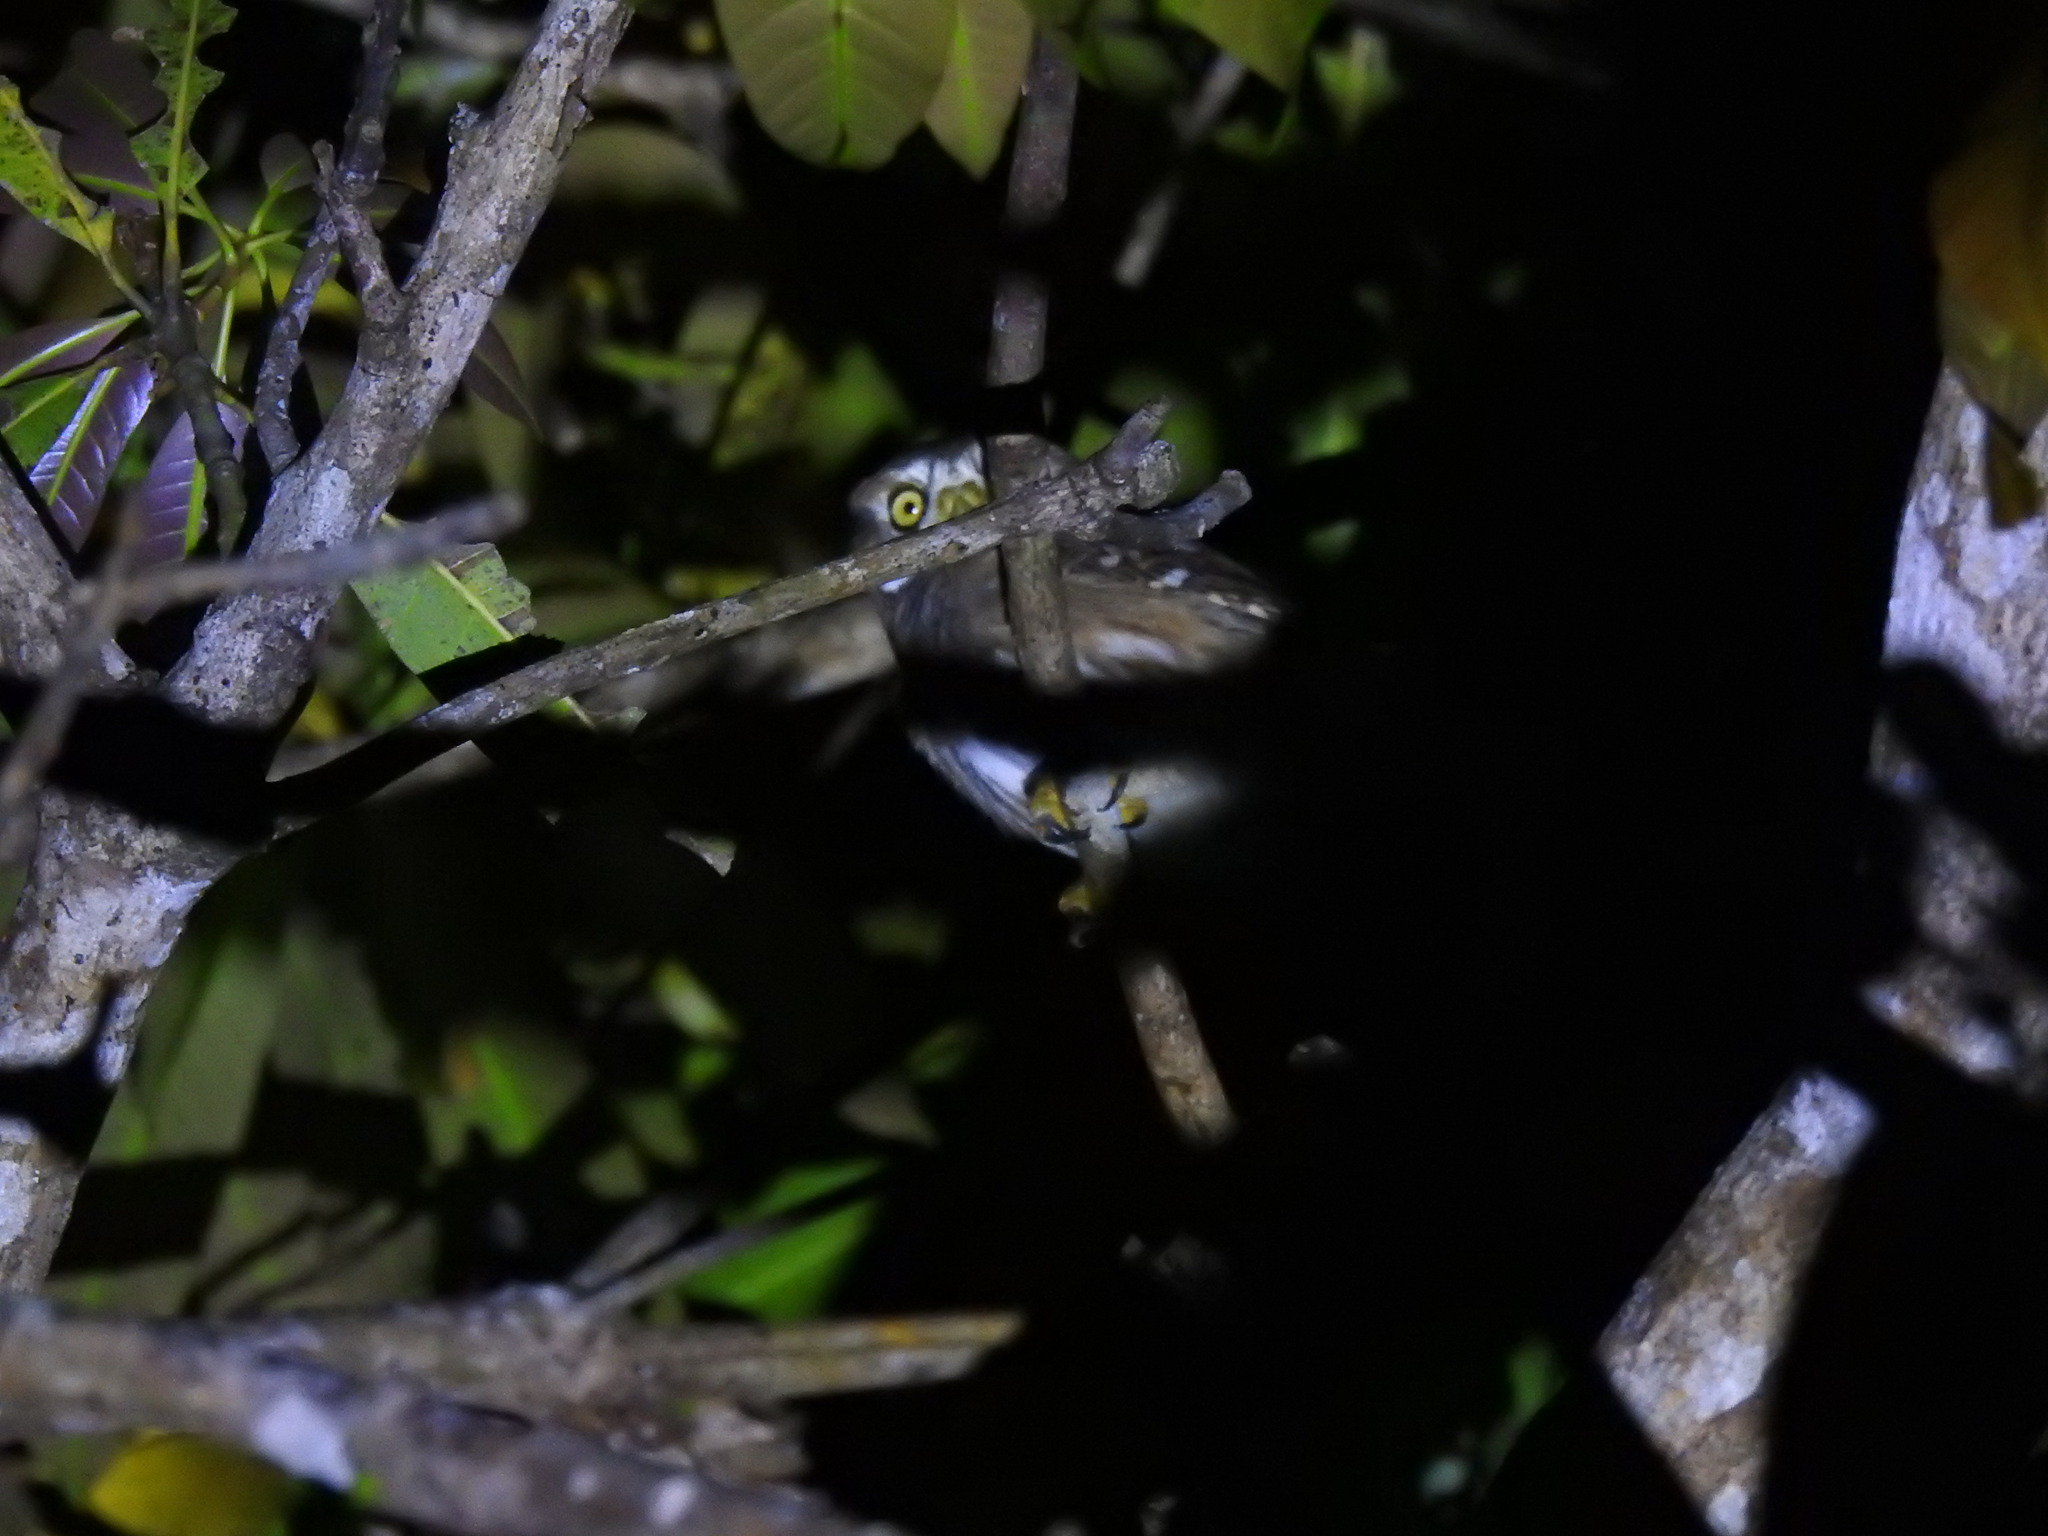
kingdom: Animalia
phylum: Chordata
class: Aves
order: Strigiformes
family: Strigidae
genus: Glaucidium
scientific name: Glaucidium brasilianum
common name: Ferruginous pygmy-owl
